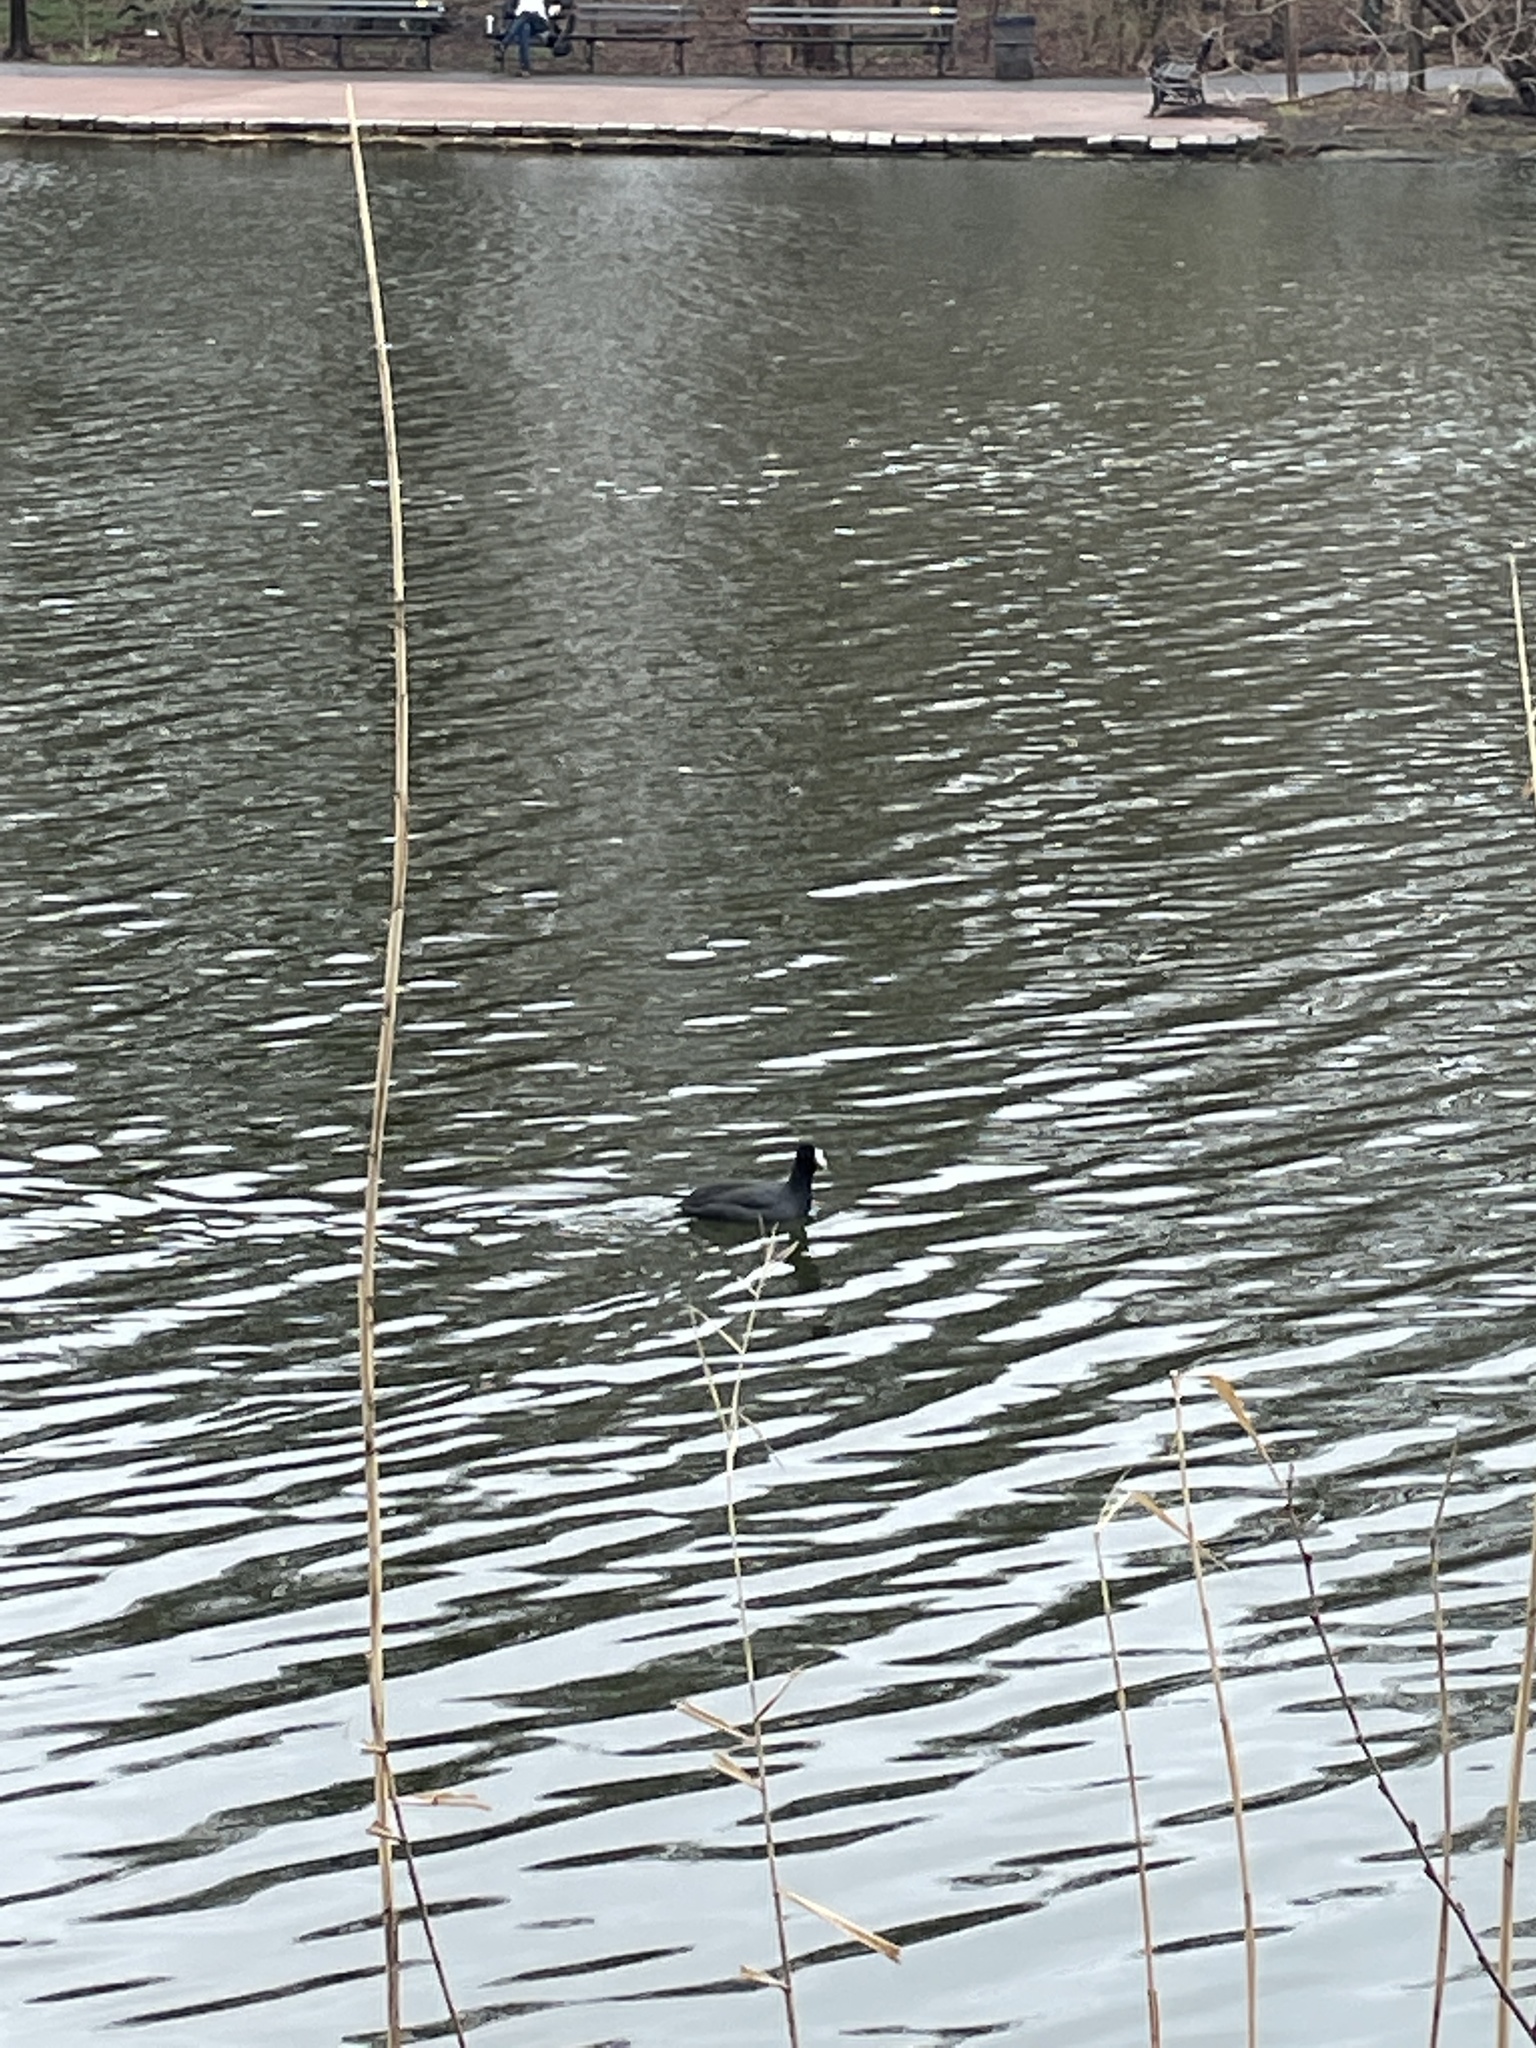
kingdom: Animalia
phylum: Chordata
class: Aves
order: Gruiformes
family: Rallidae
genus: Fulica
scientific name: Fulica americana
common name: American coot
